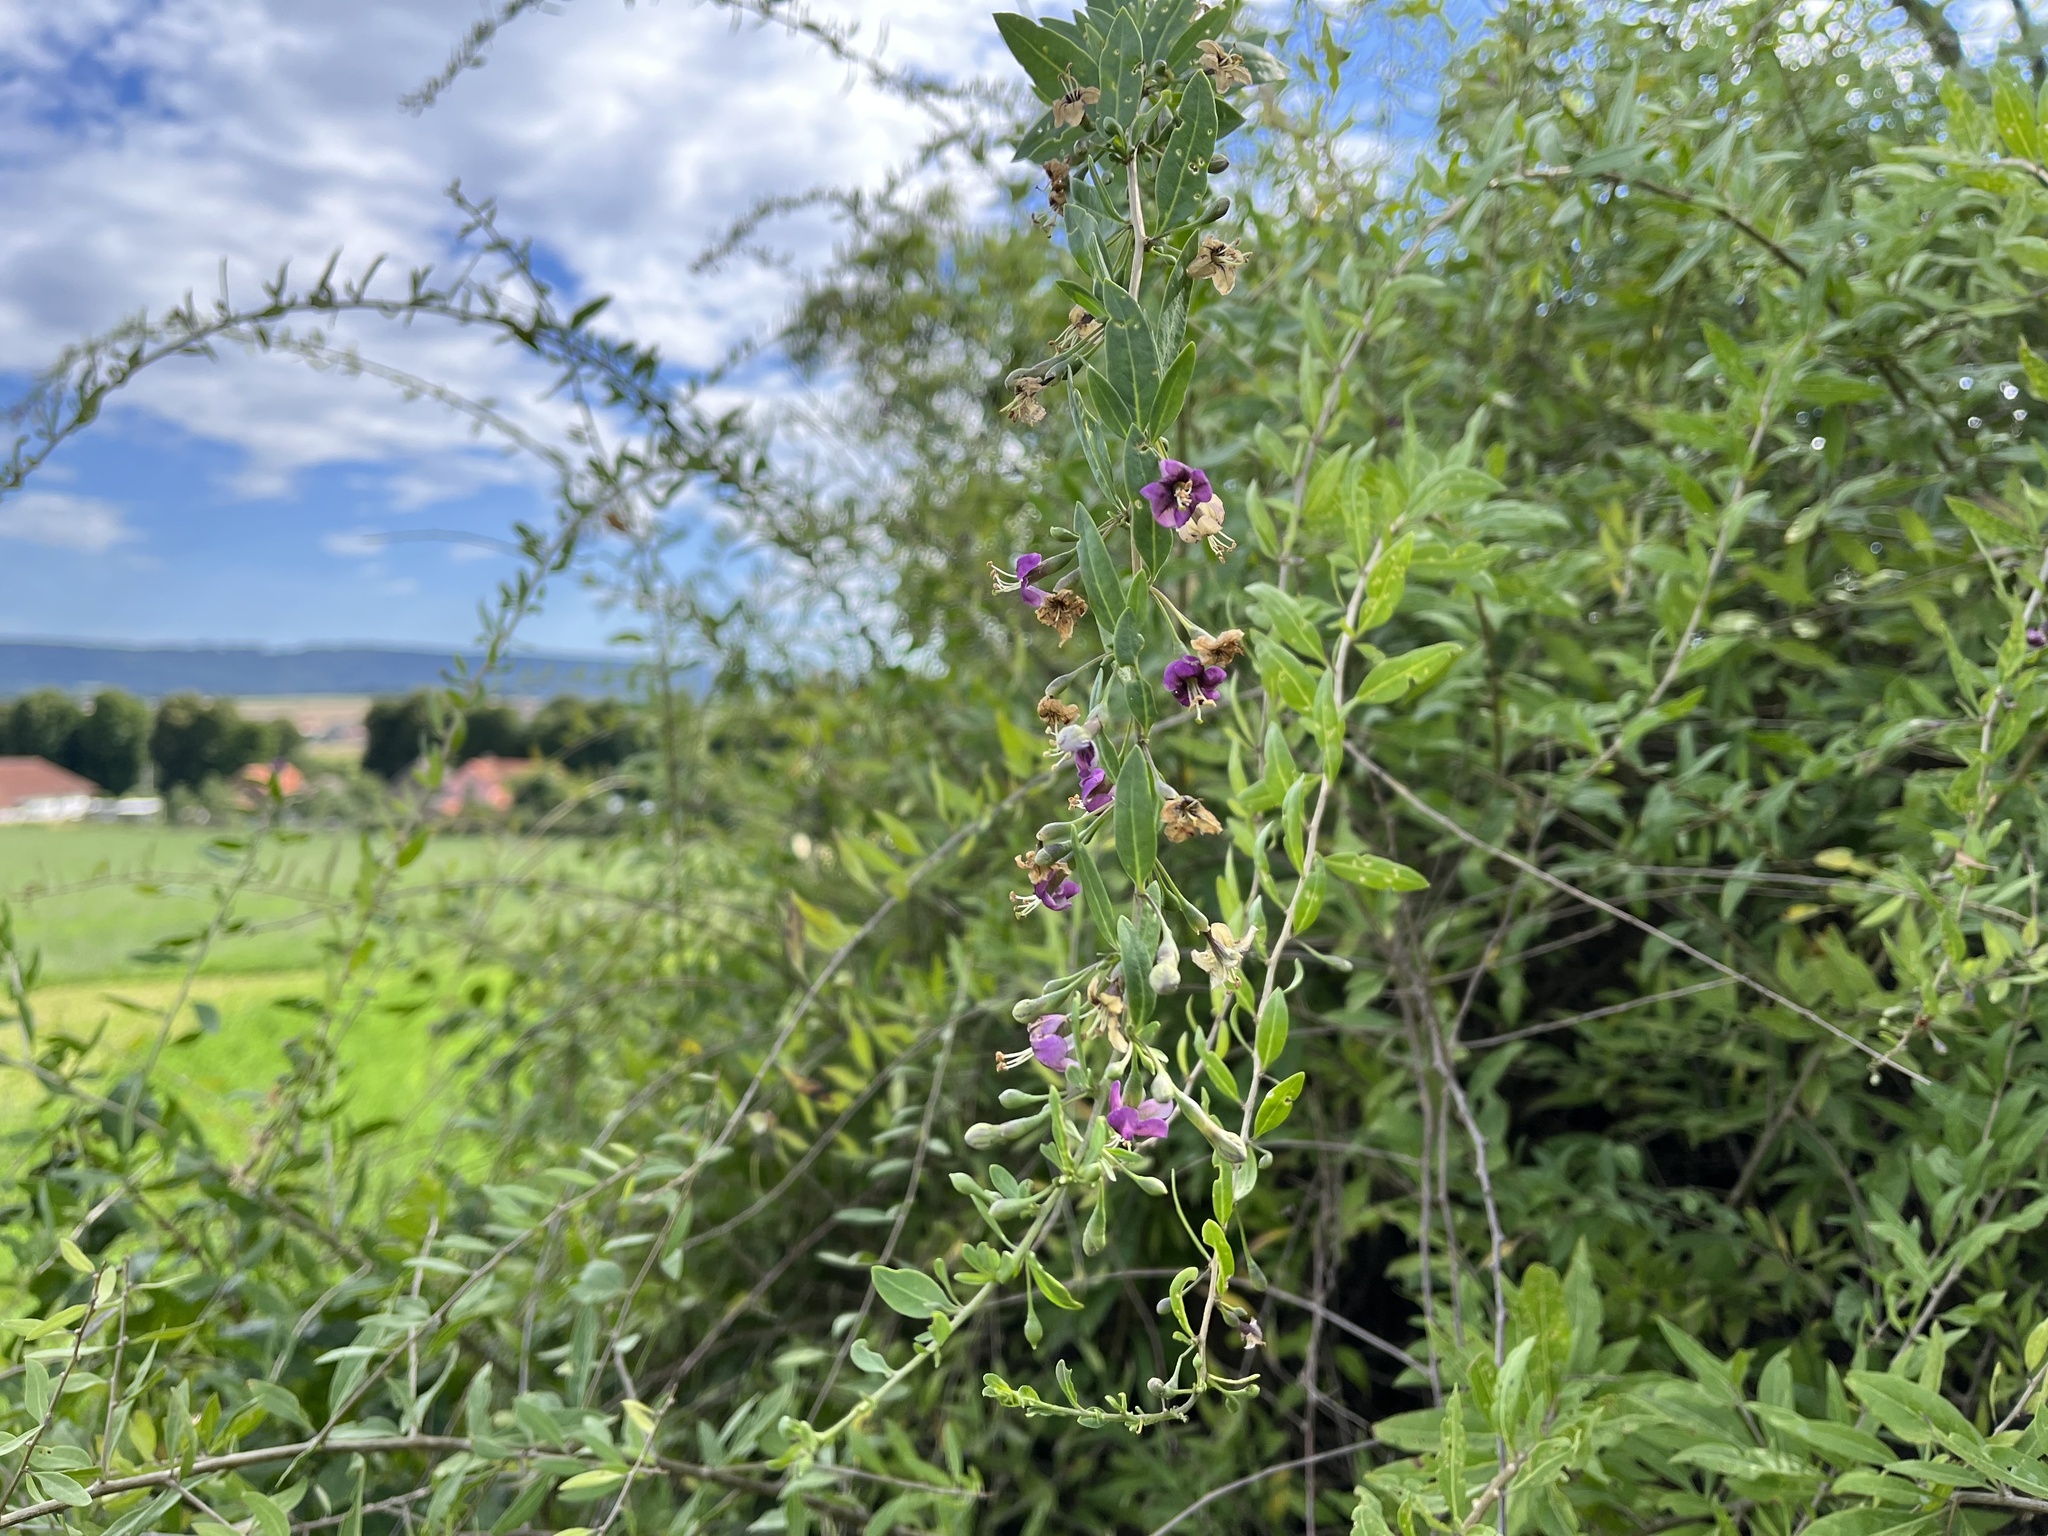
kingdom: Plantae
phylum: Tracheophyta
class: Magnoliopsida
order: Solanales
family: Solanaceae
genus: Lycium
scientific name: Lycium barbarum
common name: Duke of argyll's teaplant
